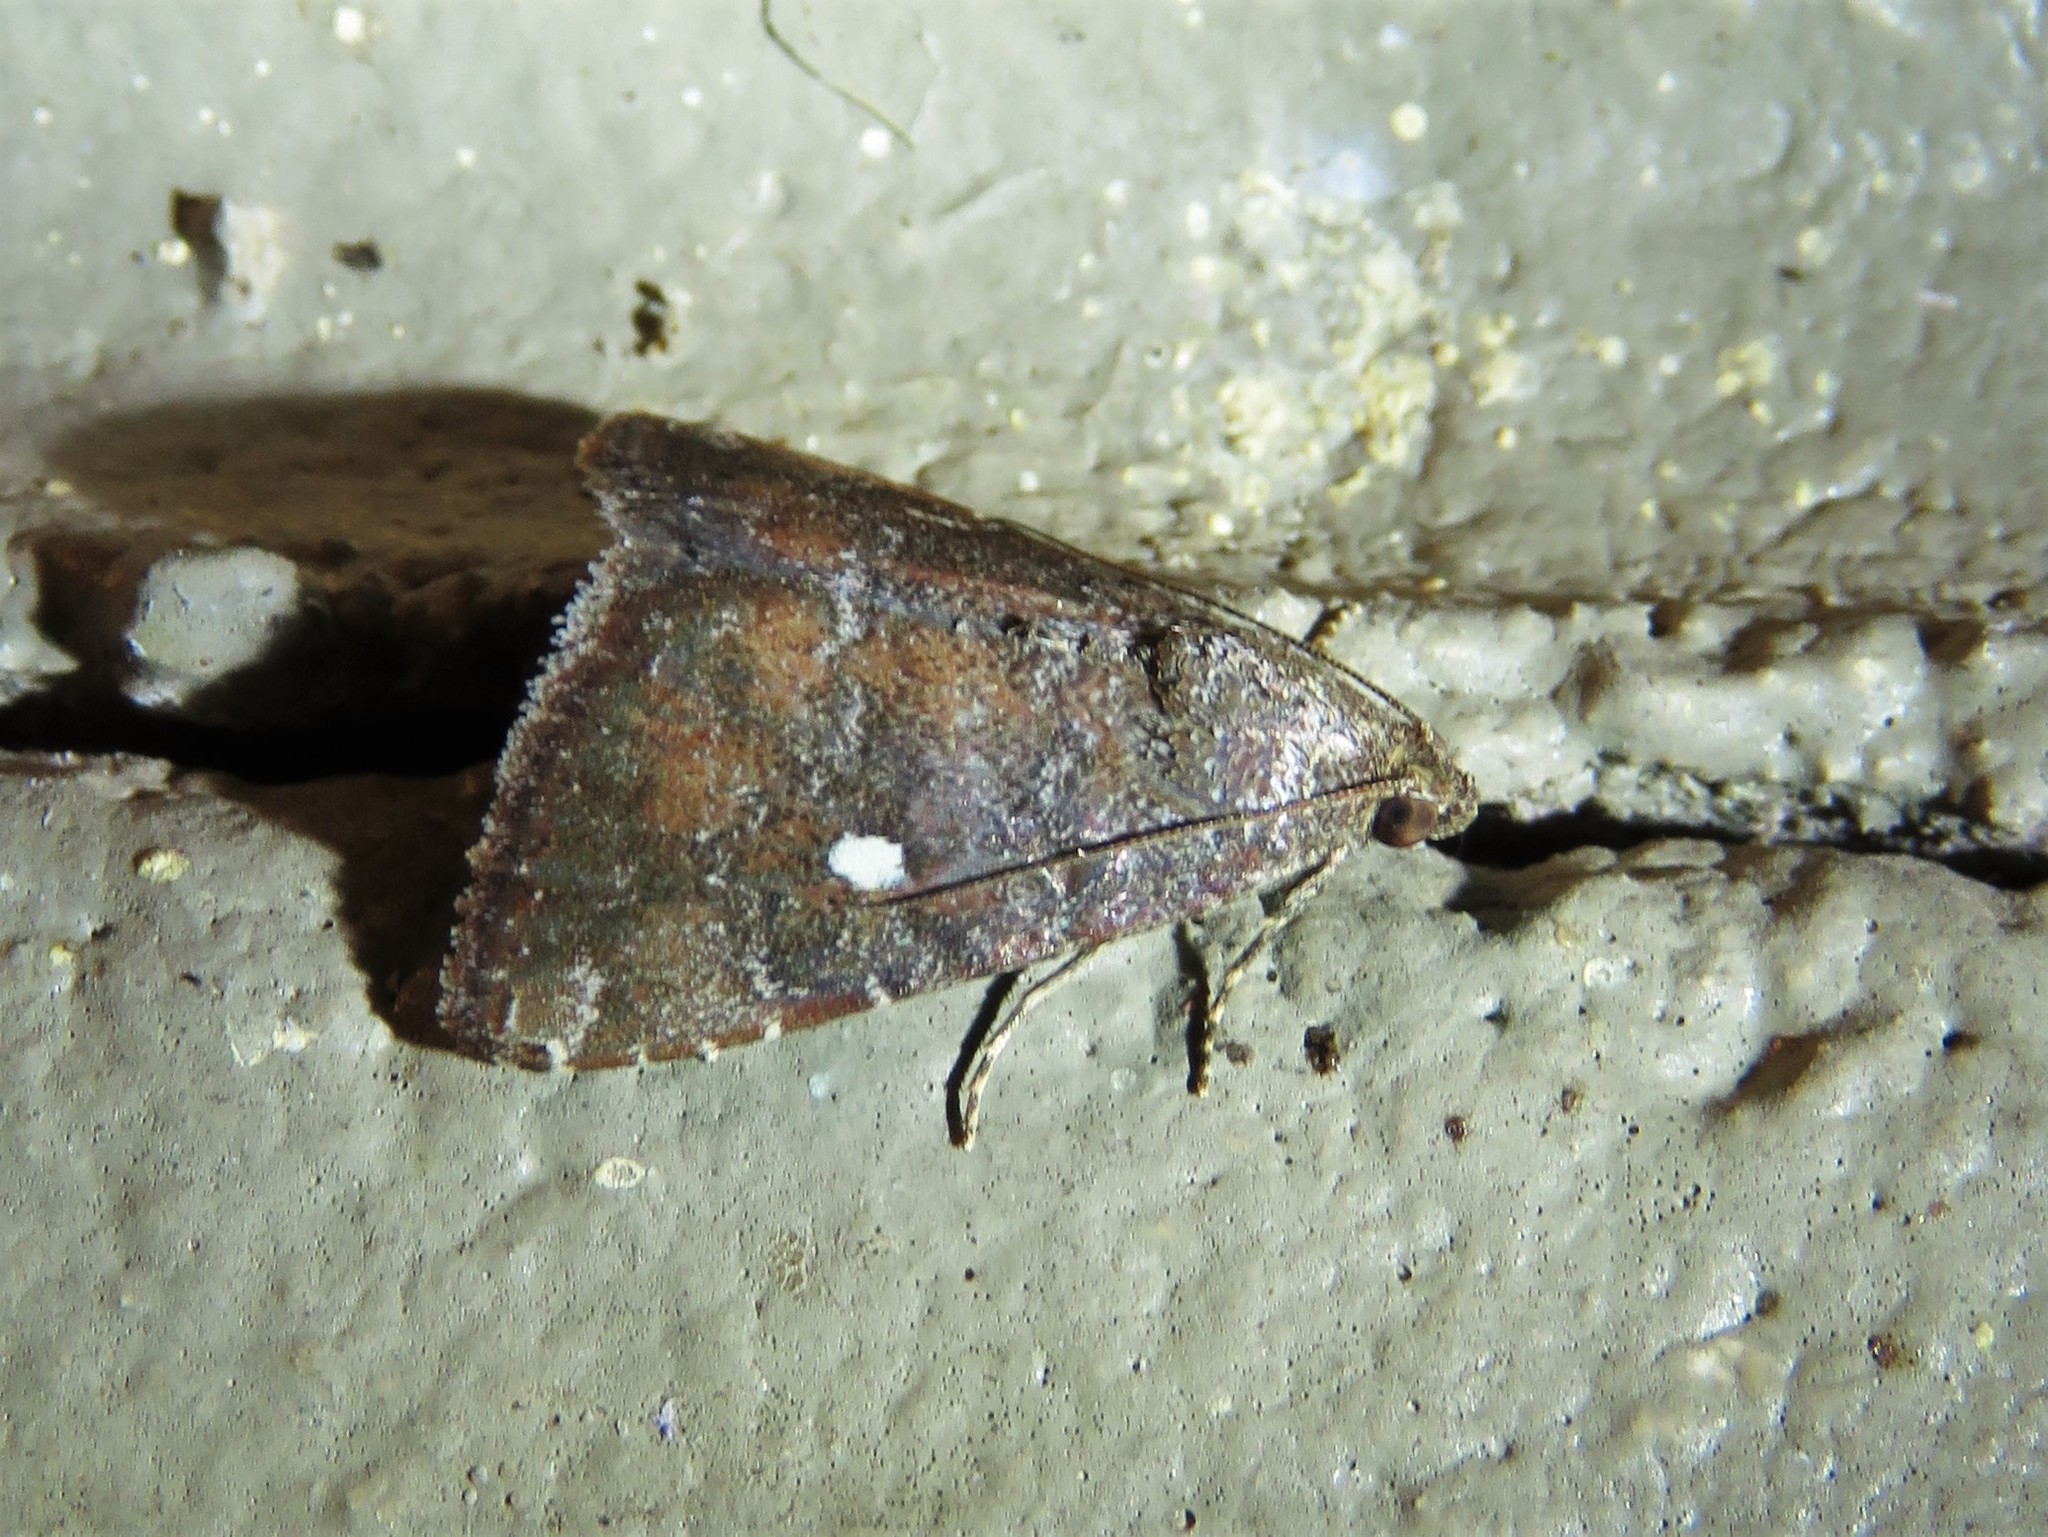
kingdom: Animalia
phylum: Arthropoda
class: Insecta
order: Lepidoptera
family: Noctuidae
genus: Amyna
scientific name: Amyna stricta
